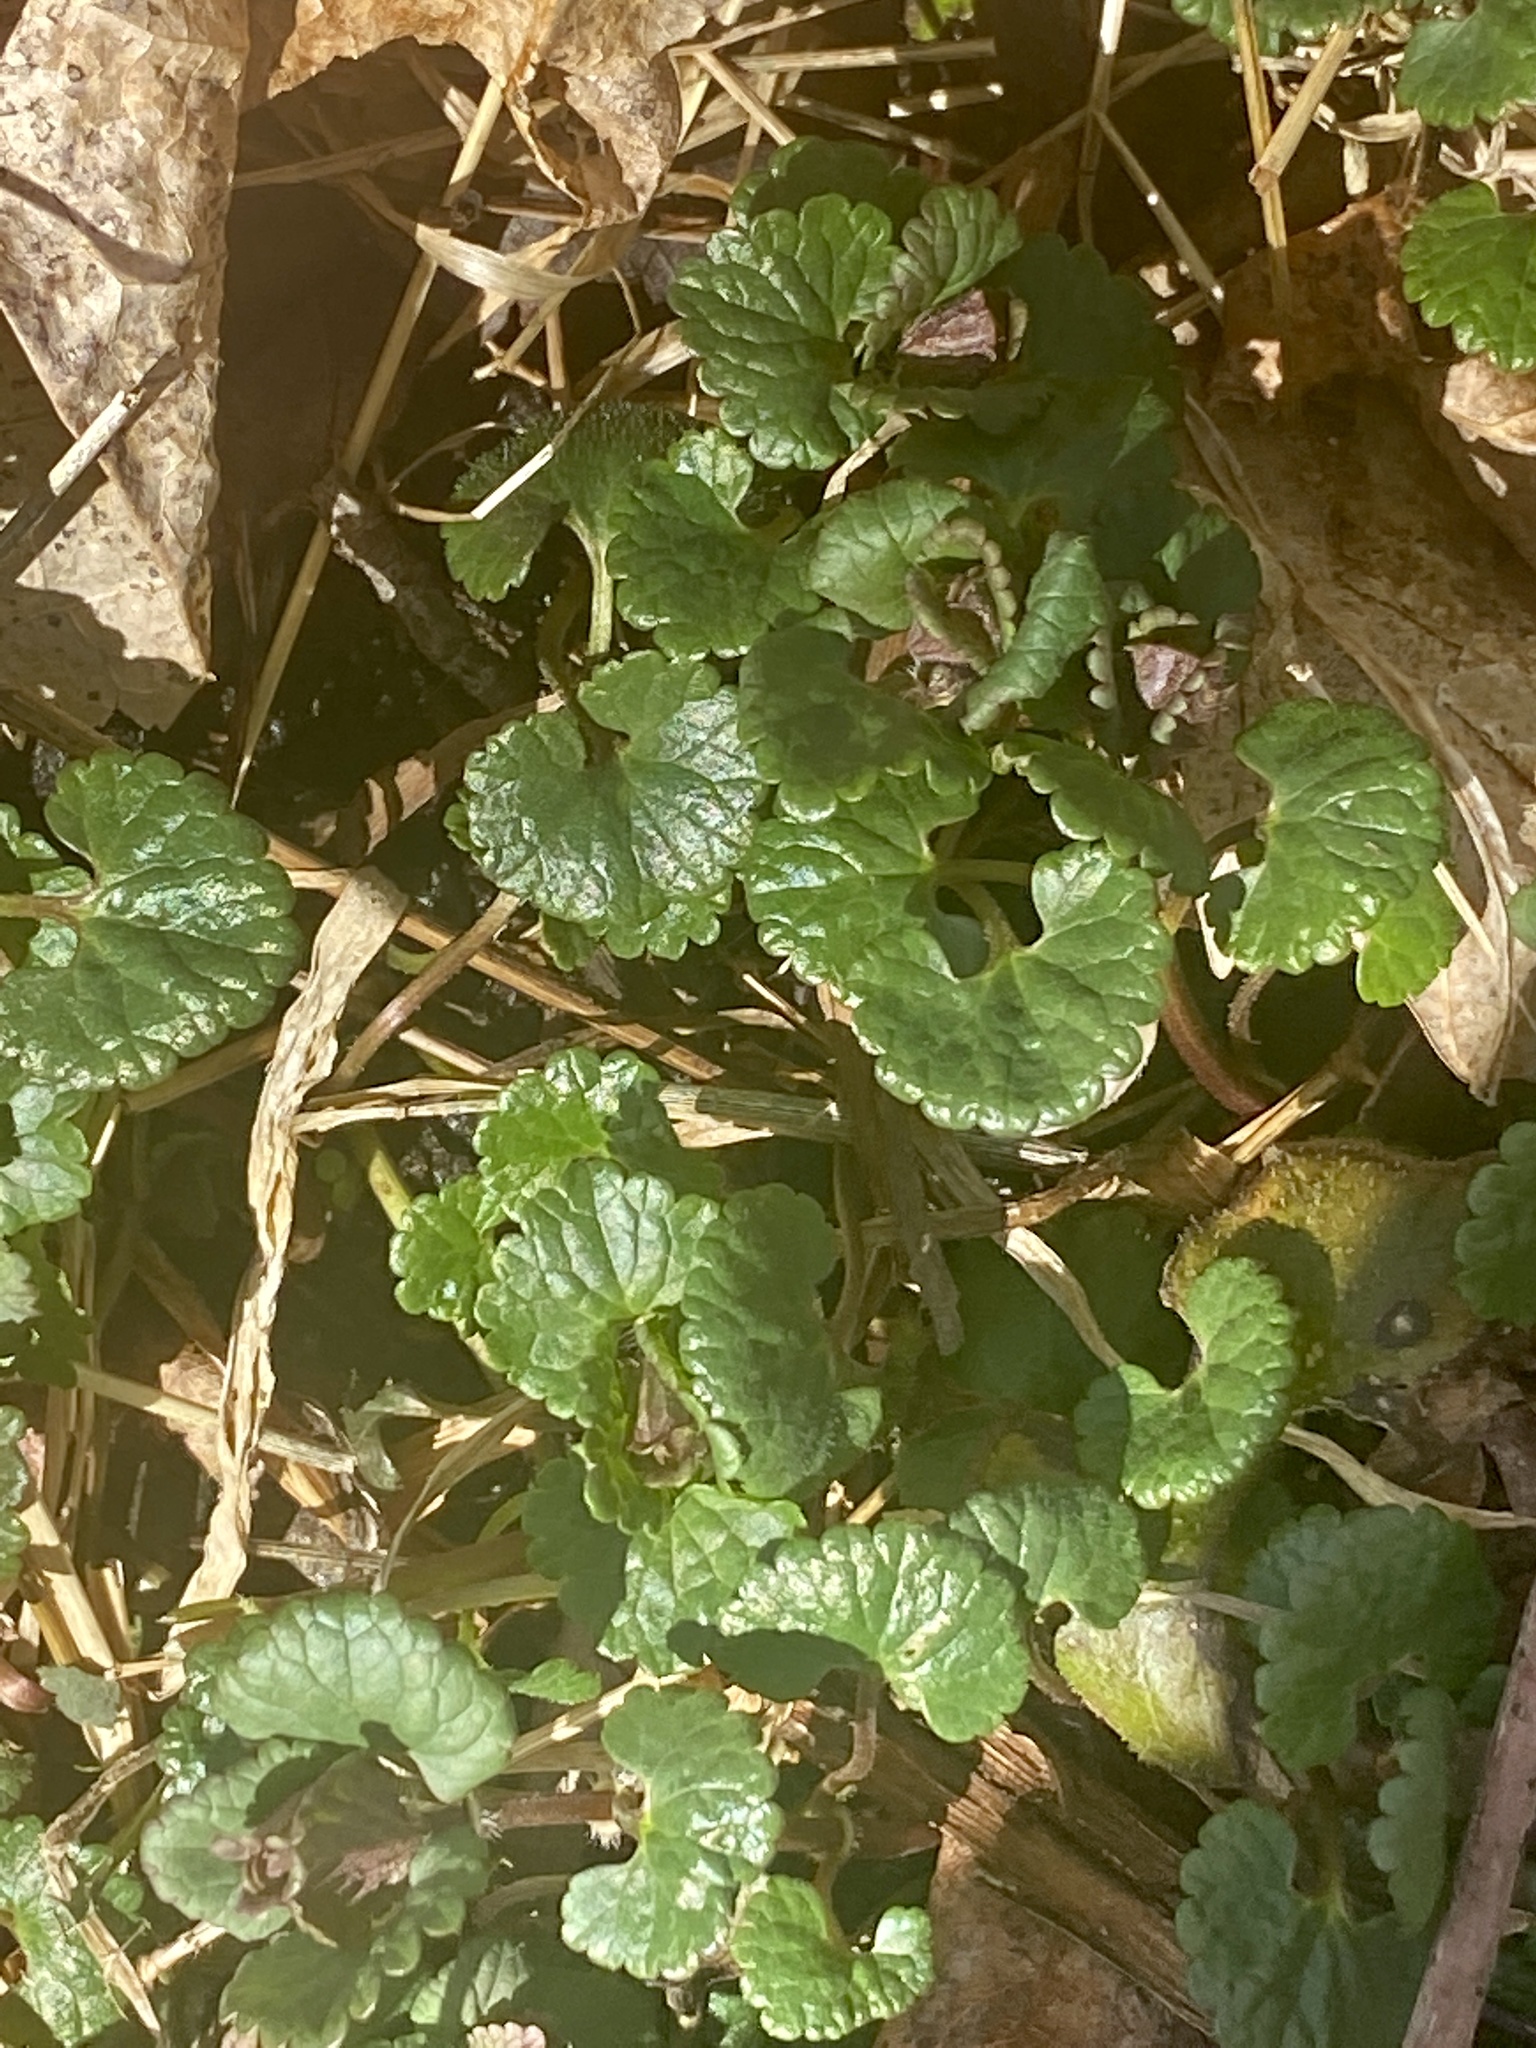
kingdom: Plantae
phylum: Tracheophyta
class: Magnoliopsida
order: Lamiales
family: Lamiaceae
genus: Glechoma
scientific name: Glechoma hederacea
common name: Ground ivy
